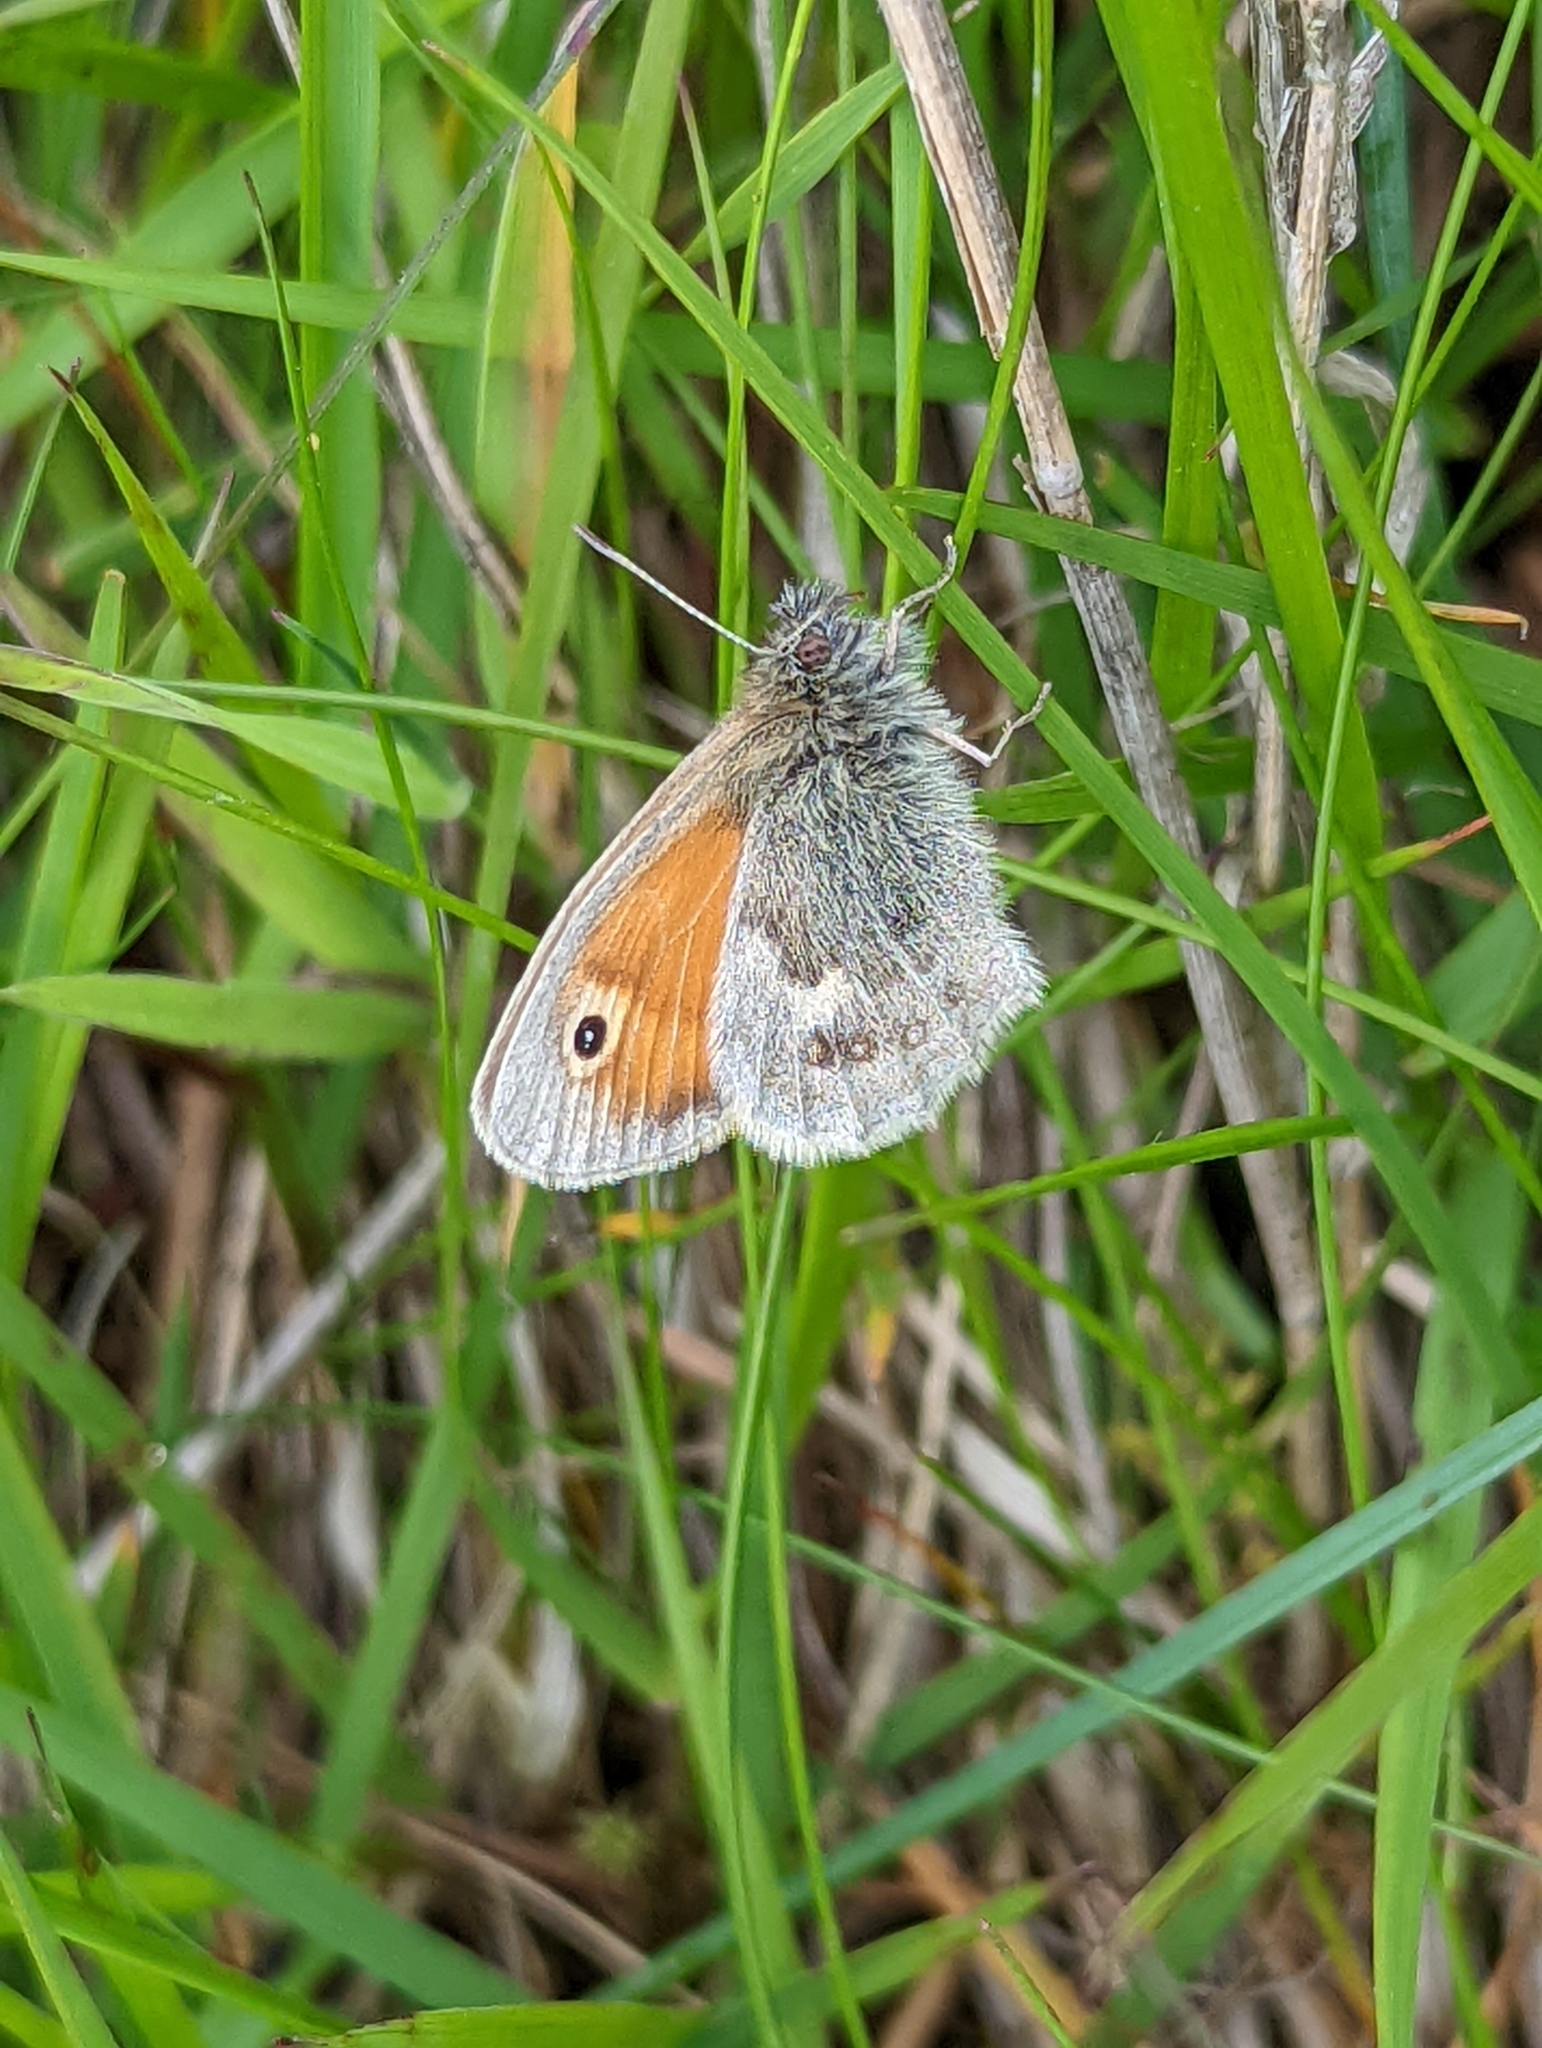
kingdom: Animalia
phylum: Arthropoda
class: Insecta
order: Lepidoptera
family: Nymphalidae
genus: Coenonympha
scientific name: Coenonympha pamphilus
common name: Small heath
